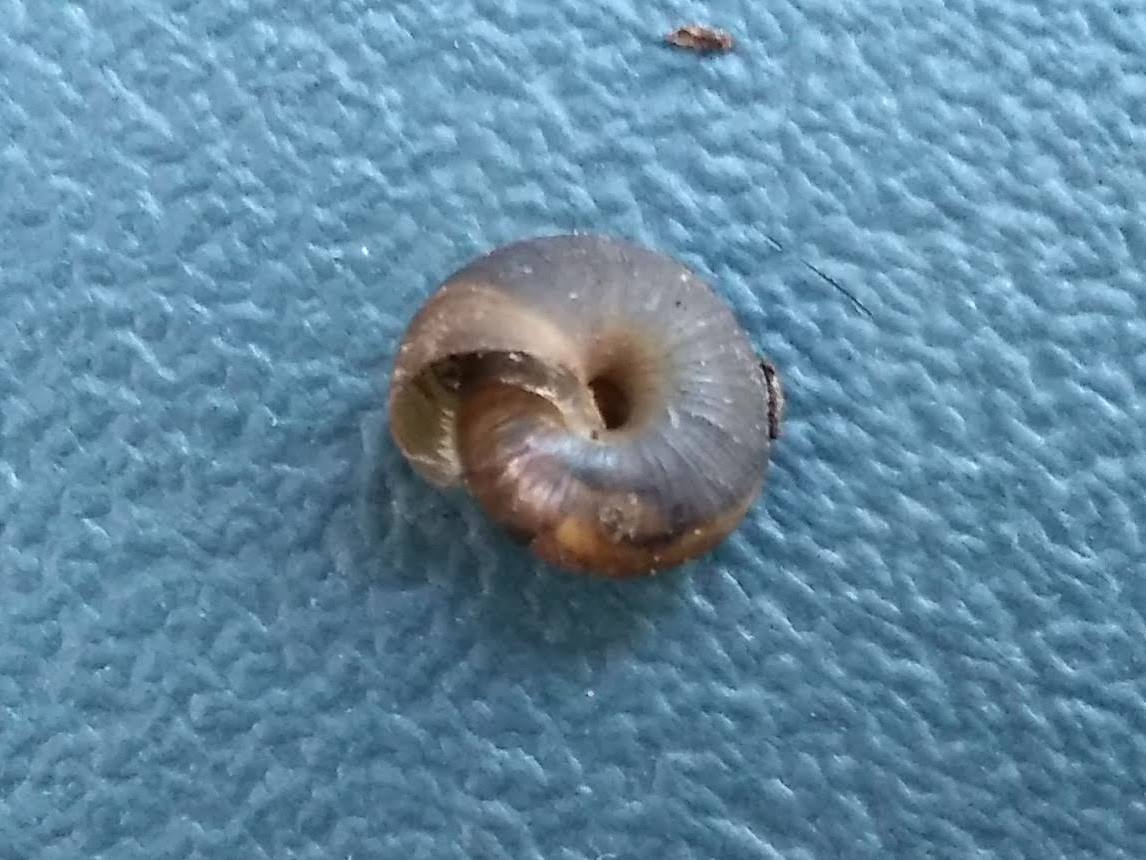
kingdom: Animalia
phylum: Mollusca
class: Gastropoda
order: Stylommatophora
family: Hygromiidae
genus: Trochulus
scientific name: Trochulus striolatus
